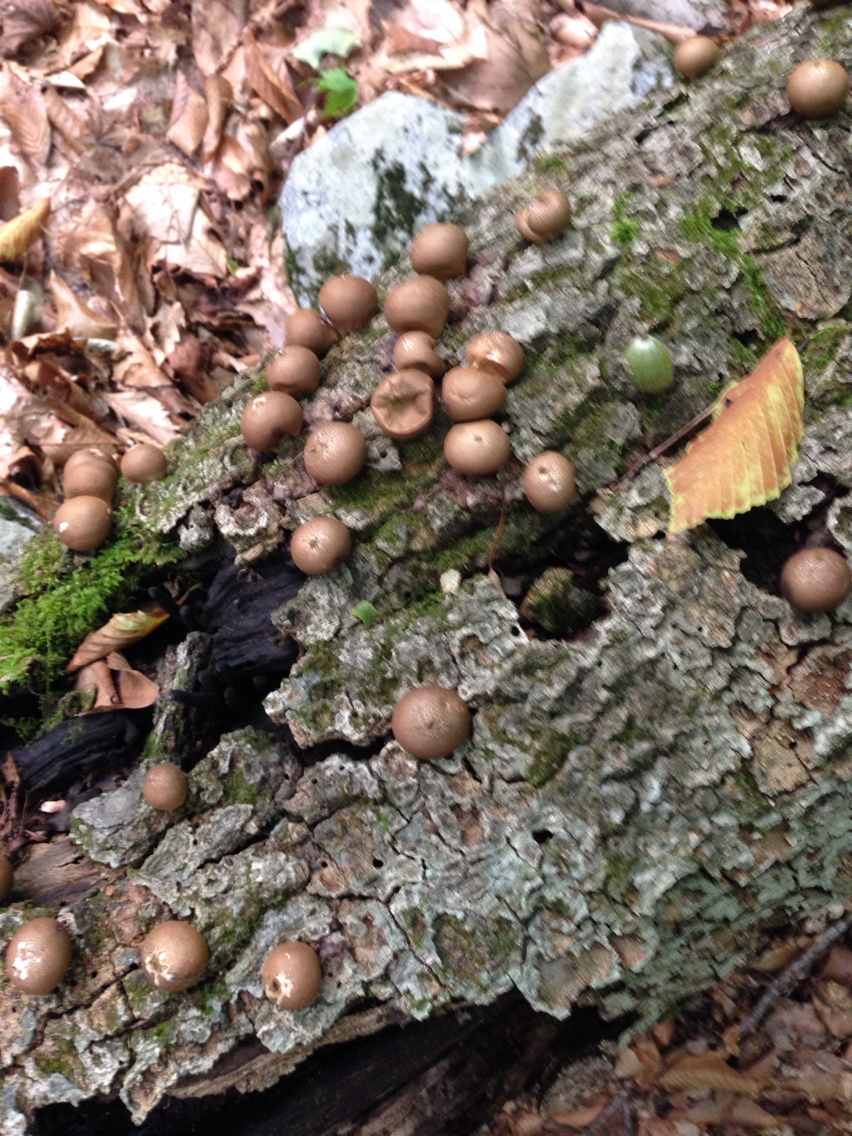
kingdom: Fungi
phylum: Basidiomycota
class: Agaricomycetes
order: Agaricales
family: Lycoperdaceae
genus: Apioperdon
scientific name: Apioperdon pyriforme
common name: Pear-shaped puffball
